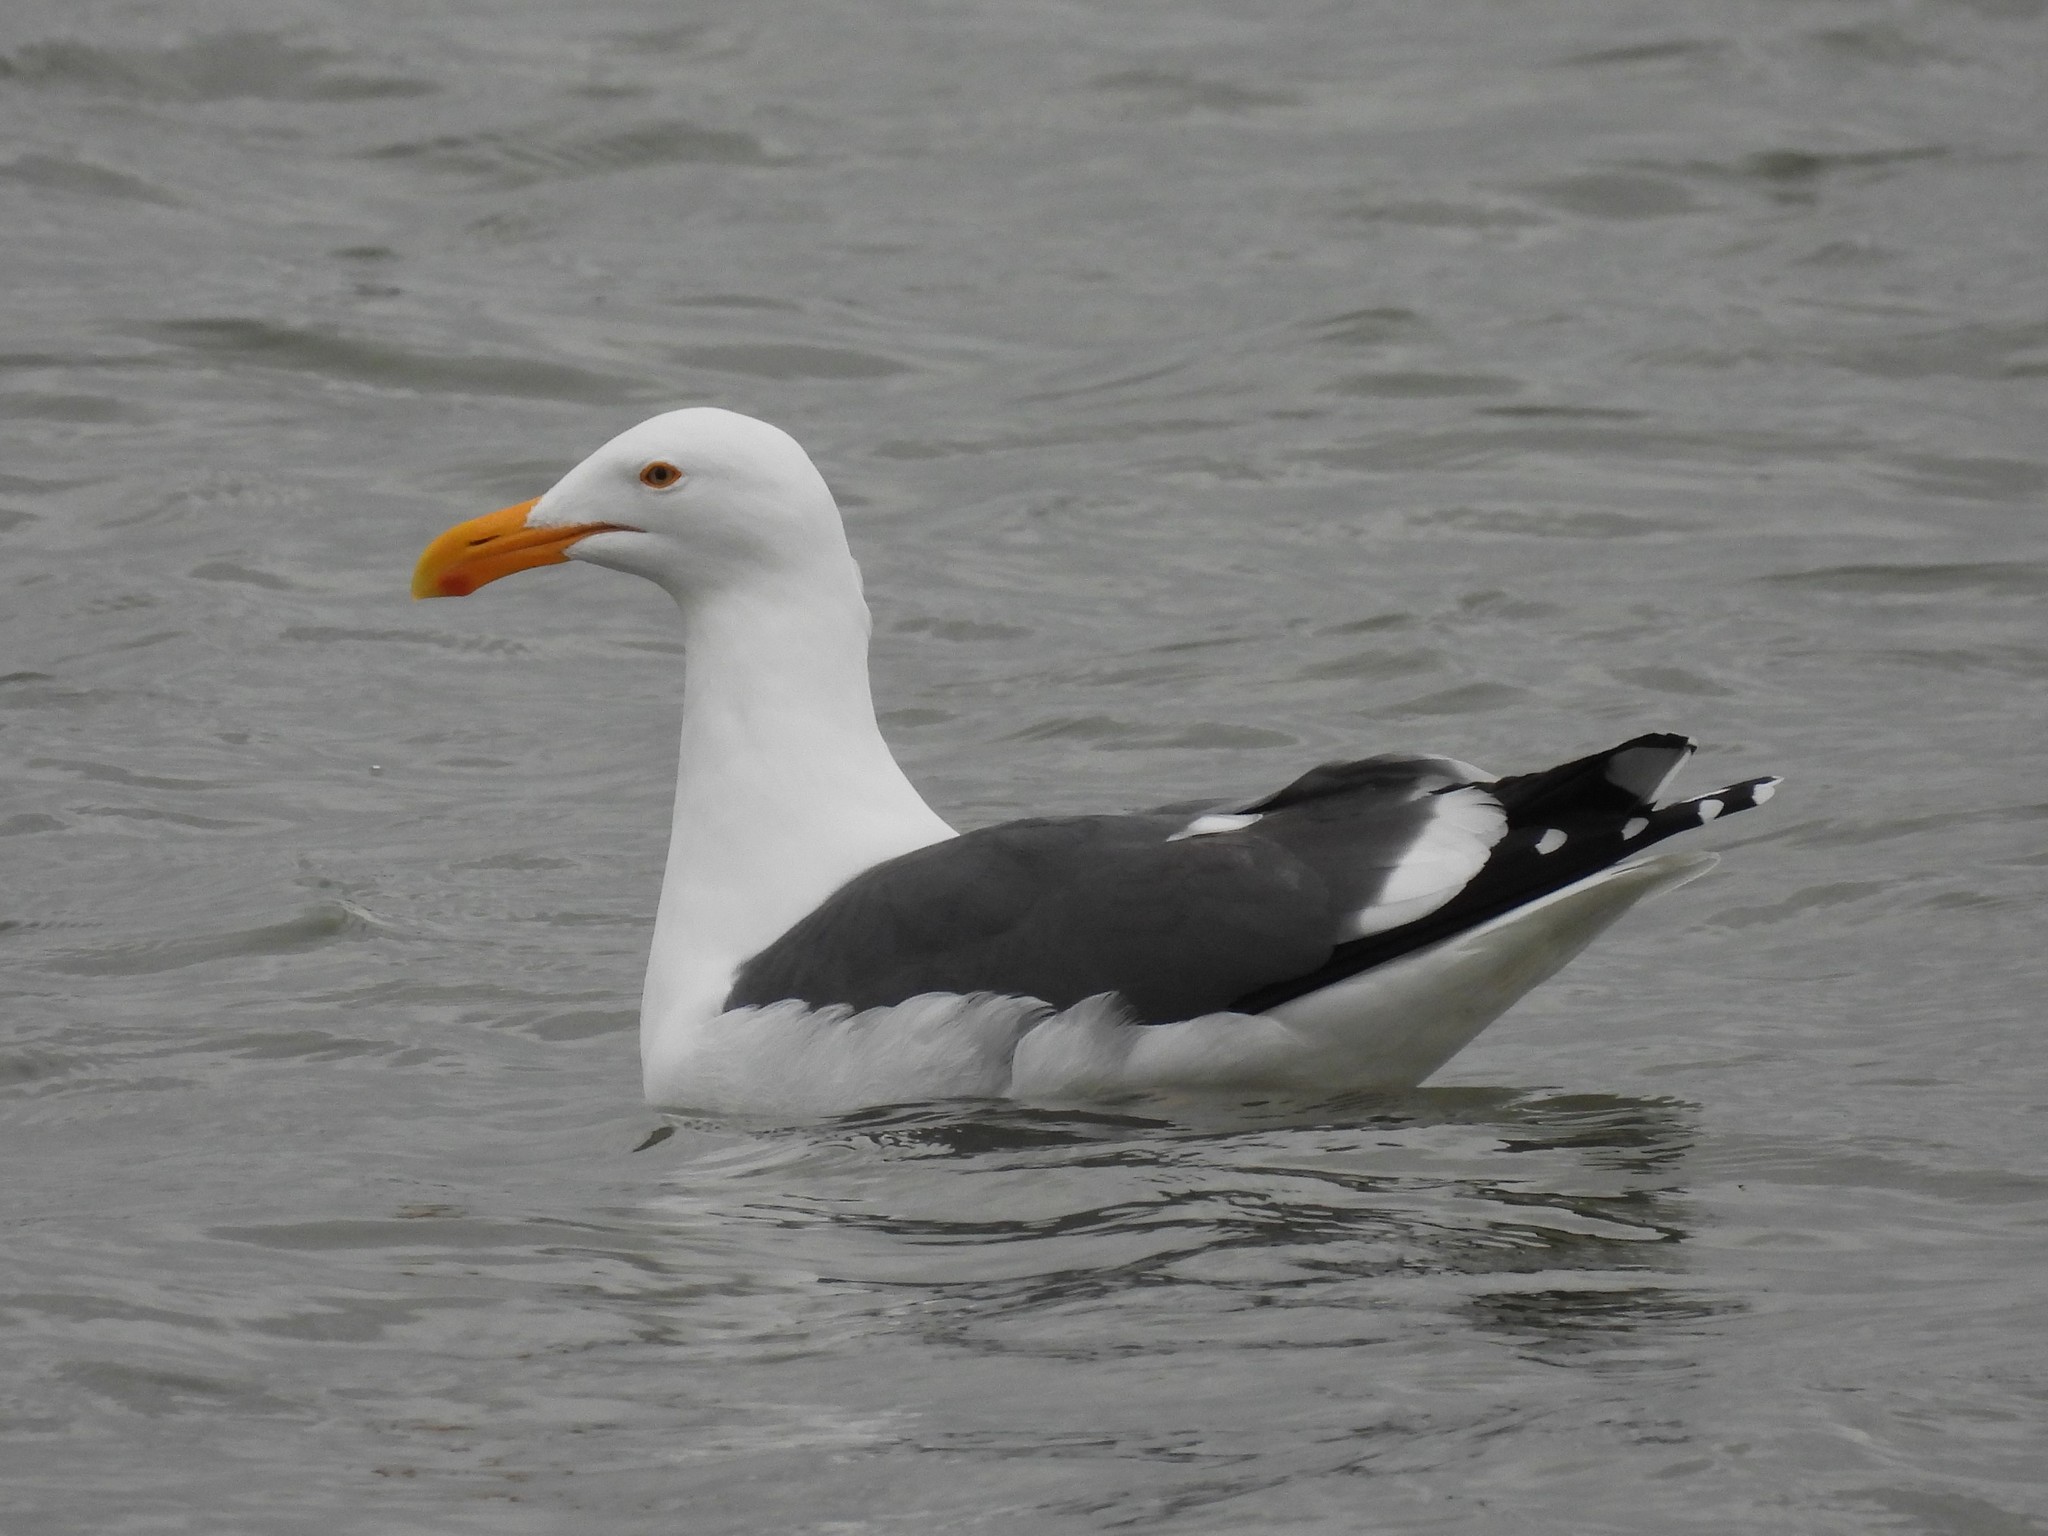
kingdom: Animalia
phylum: Chordata
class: Aves
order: Charadriiformes
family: Laridae
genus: Larus
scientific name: Larus occidentalis
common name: Western gull
